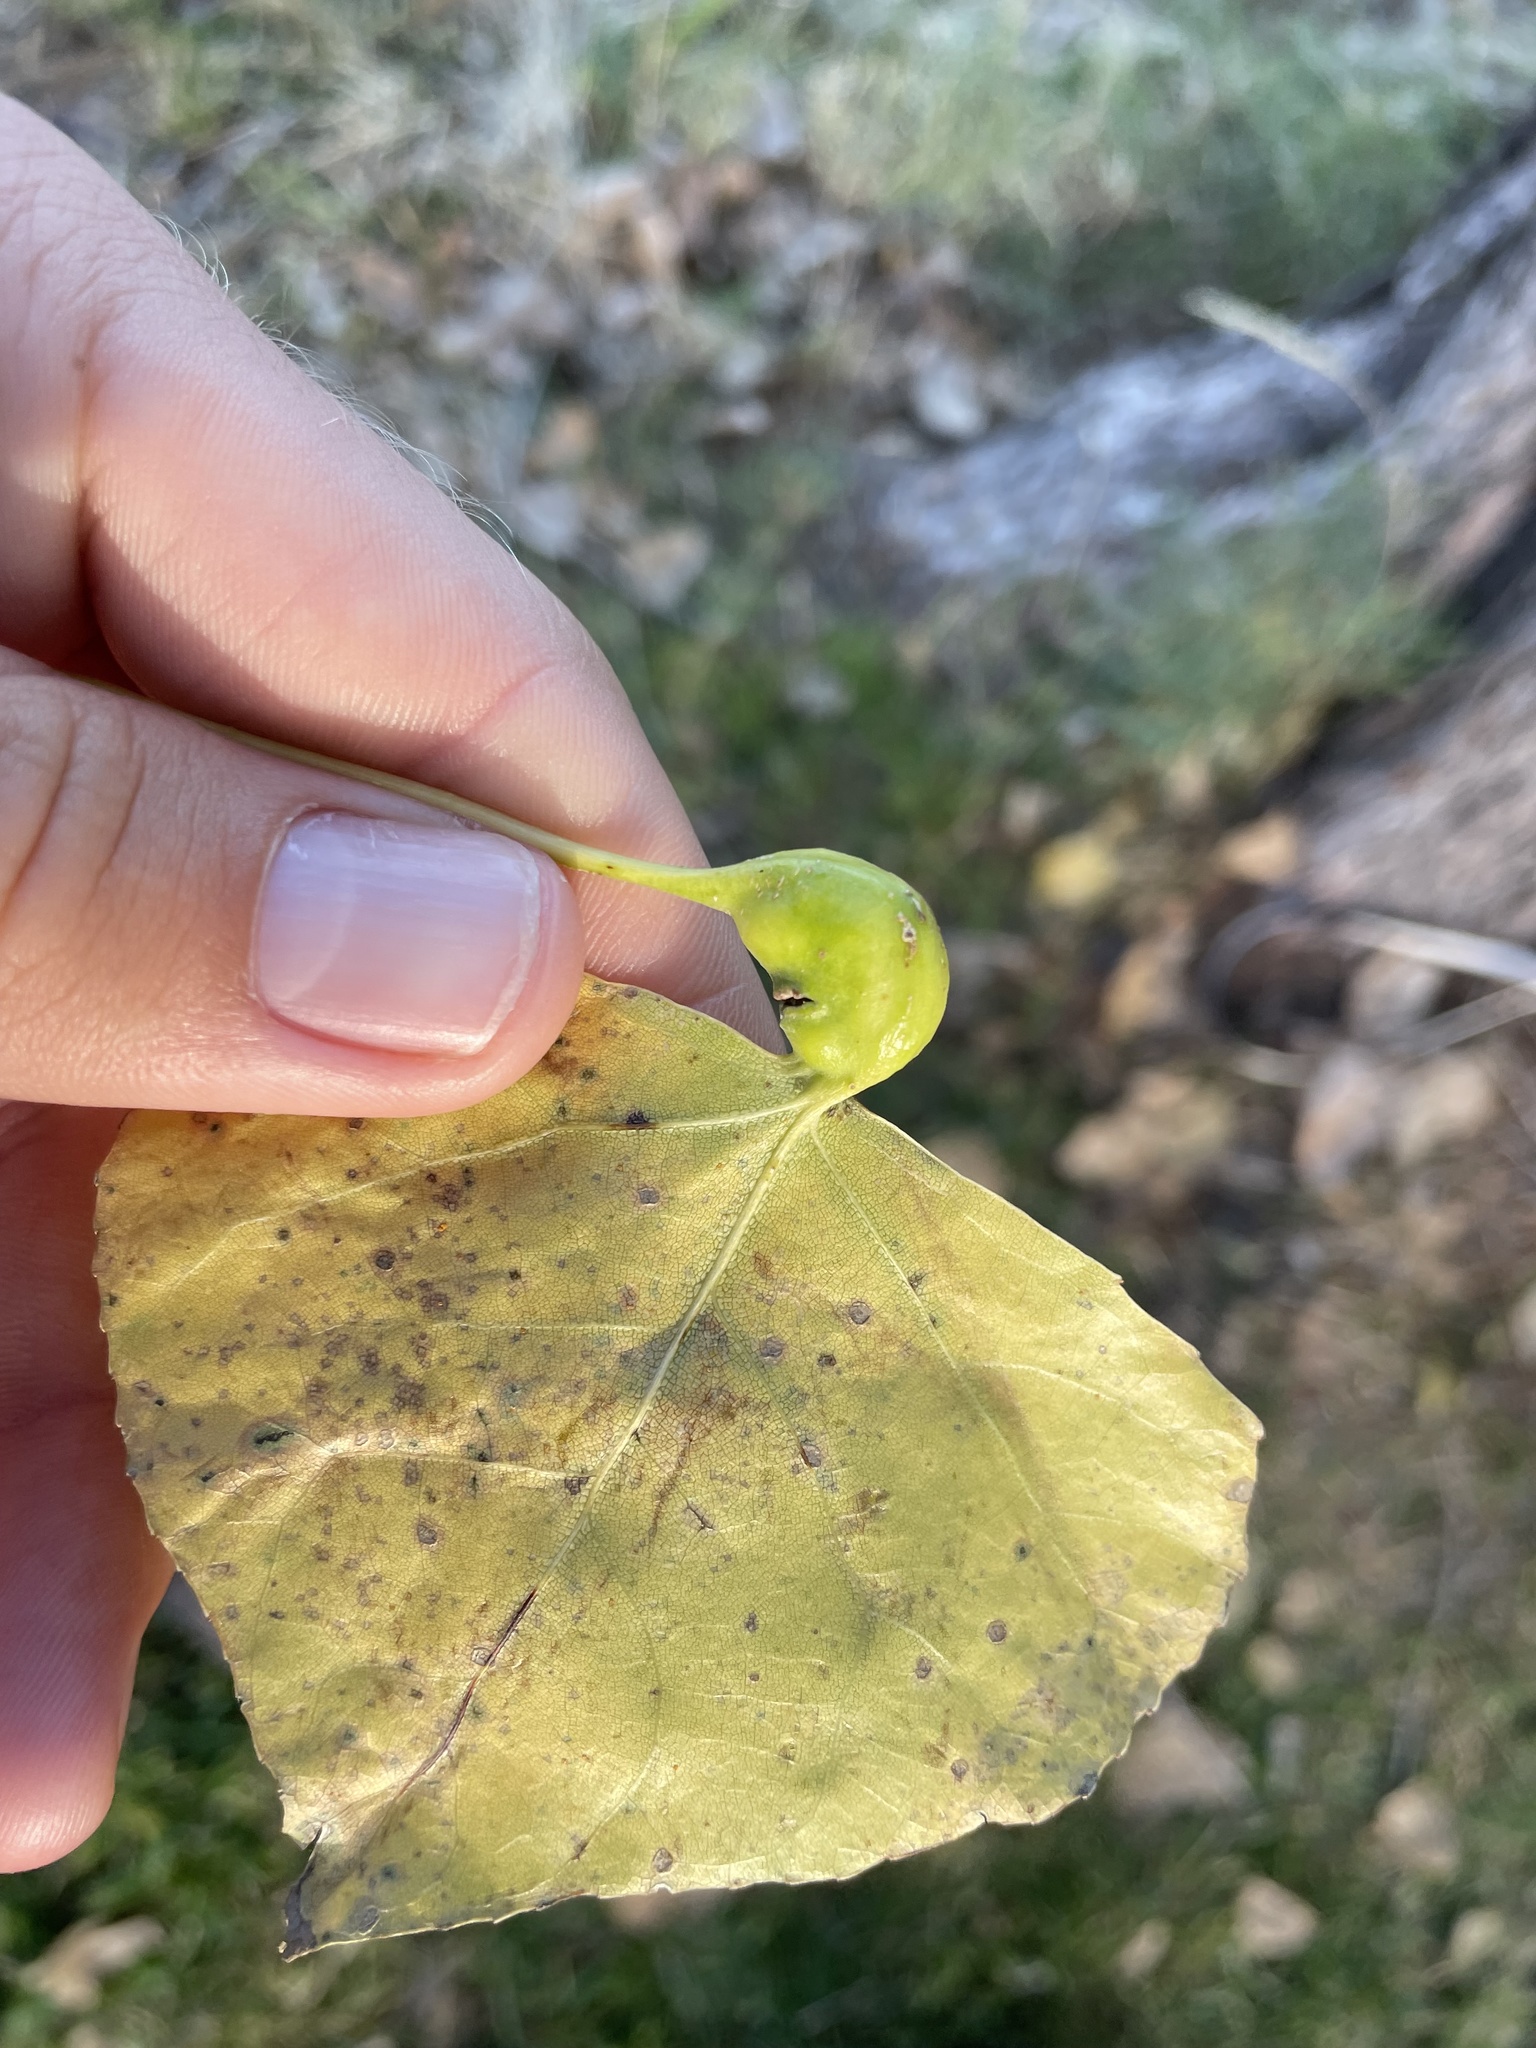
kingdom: Animalia
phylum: Arthropoda
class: Insecta
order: Hemiptera
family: Aphididae
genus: Pemphigus
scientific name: Pemphigus obesinymphae
